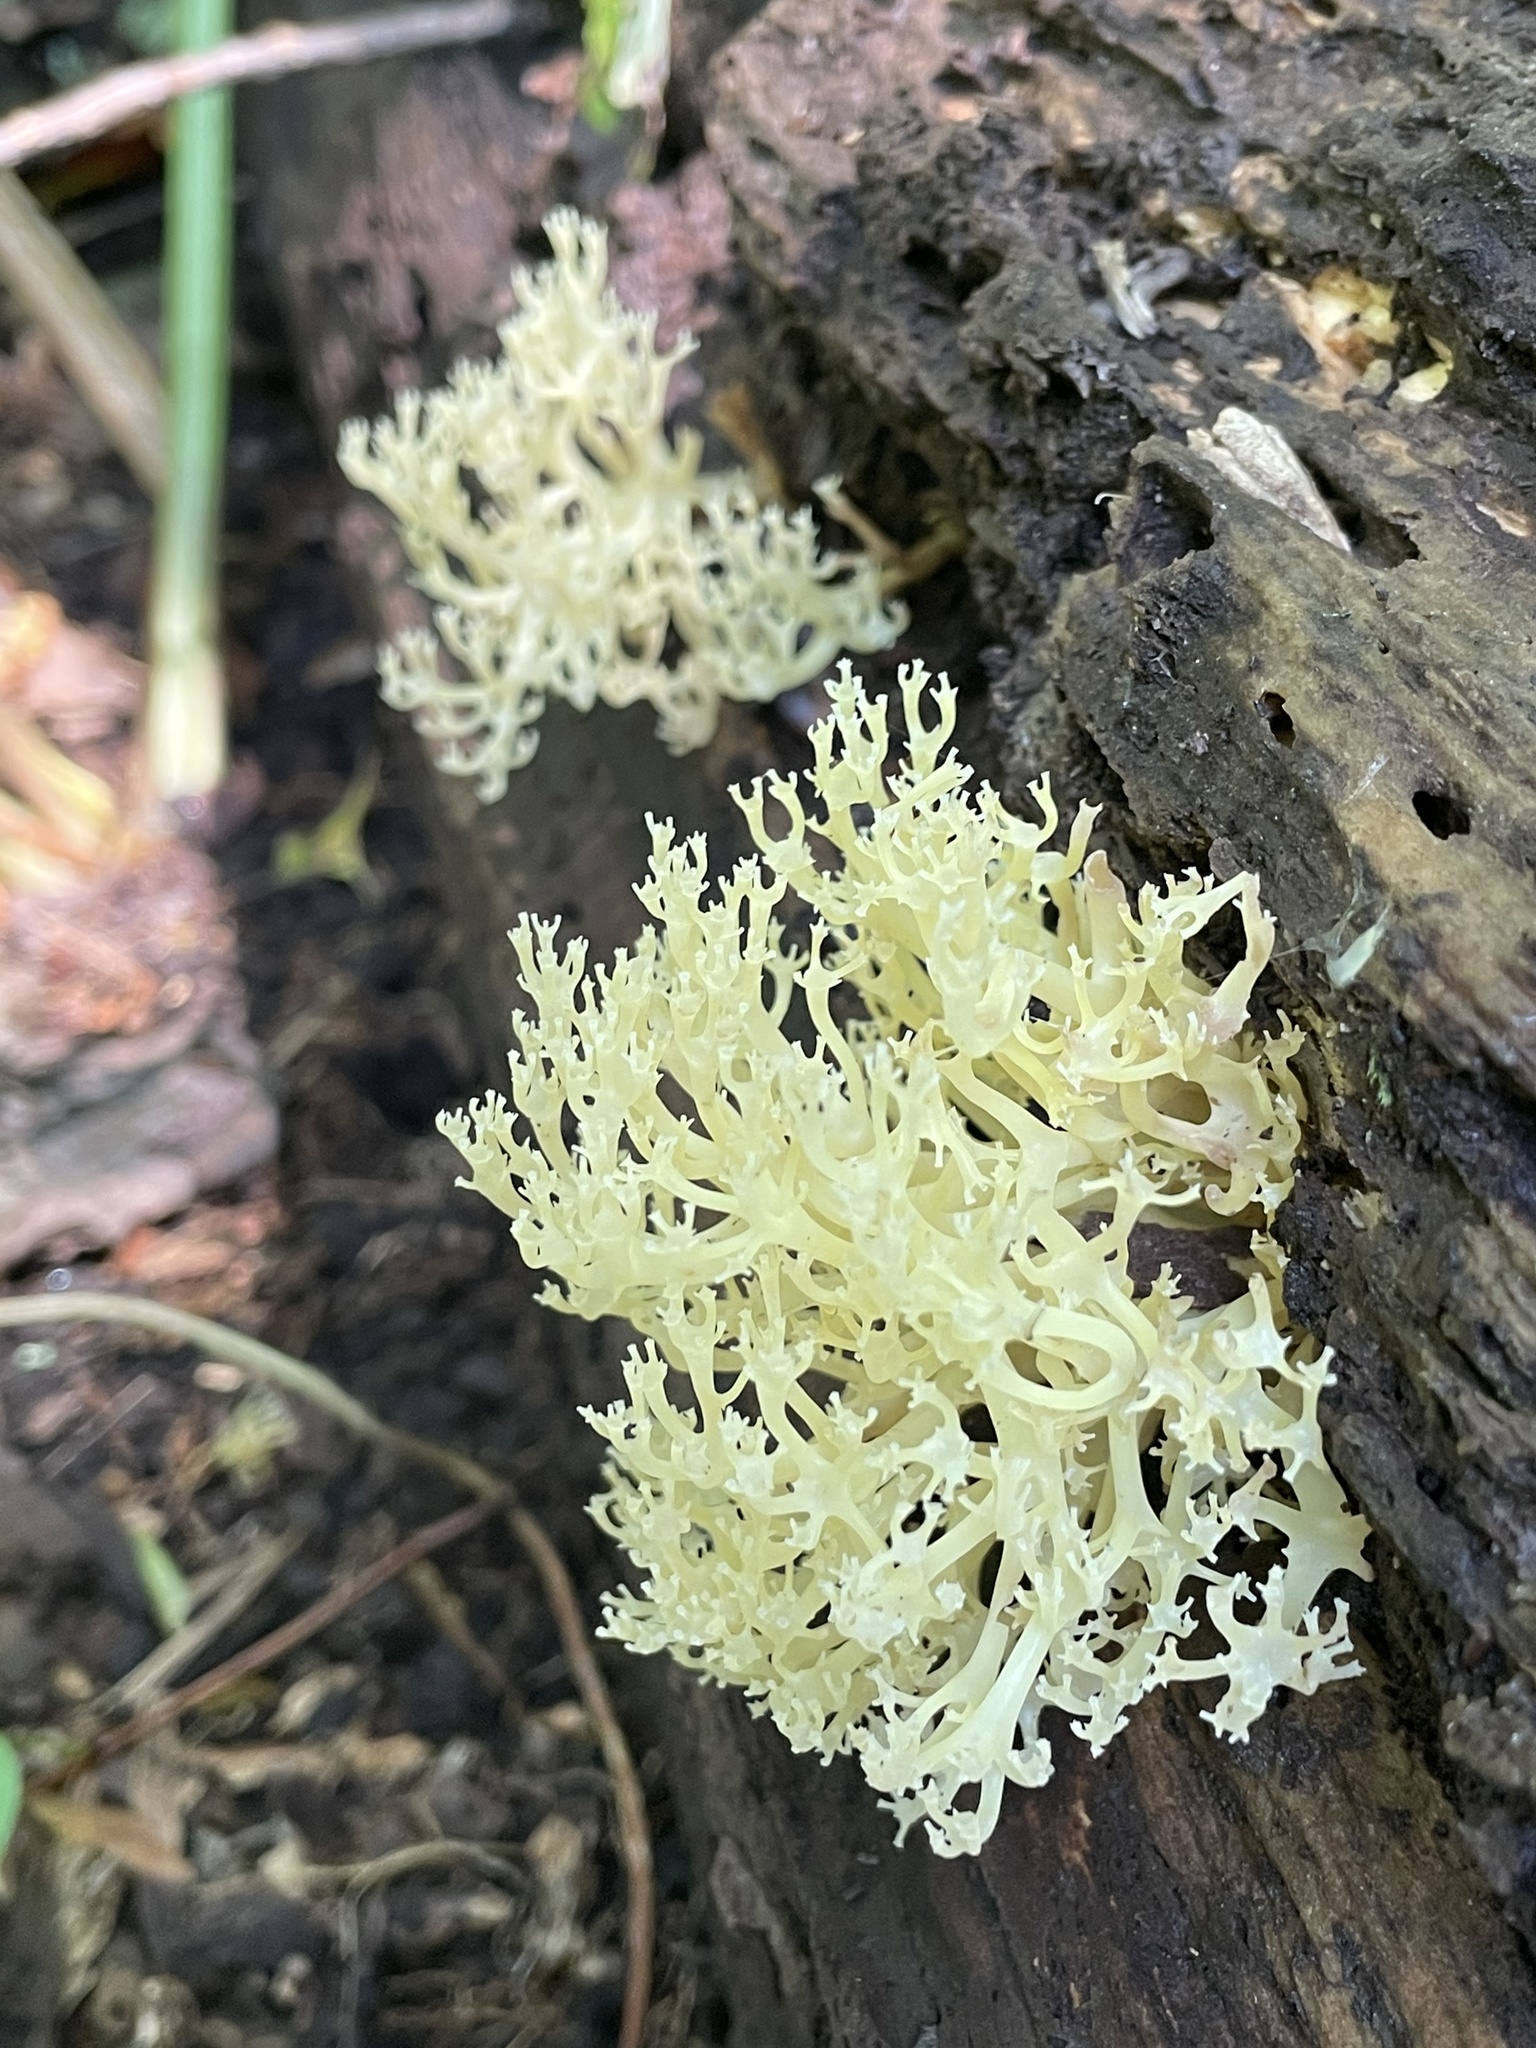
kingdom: Fungi
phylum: Basidiomycota
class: Agaricomycetes
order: Russulales
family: Auriscalpiaceae
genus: Artomyces
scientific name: Artomyces pyxidatus
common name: Crown-tipped coral fungus
